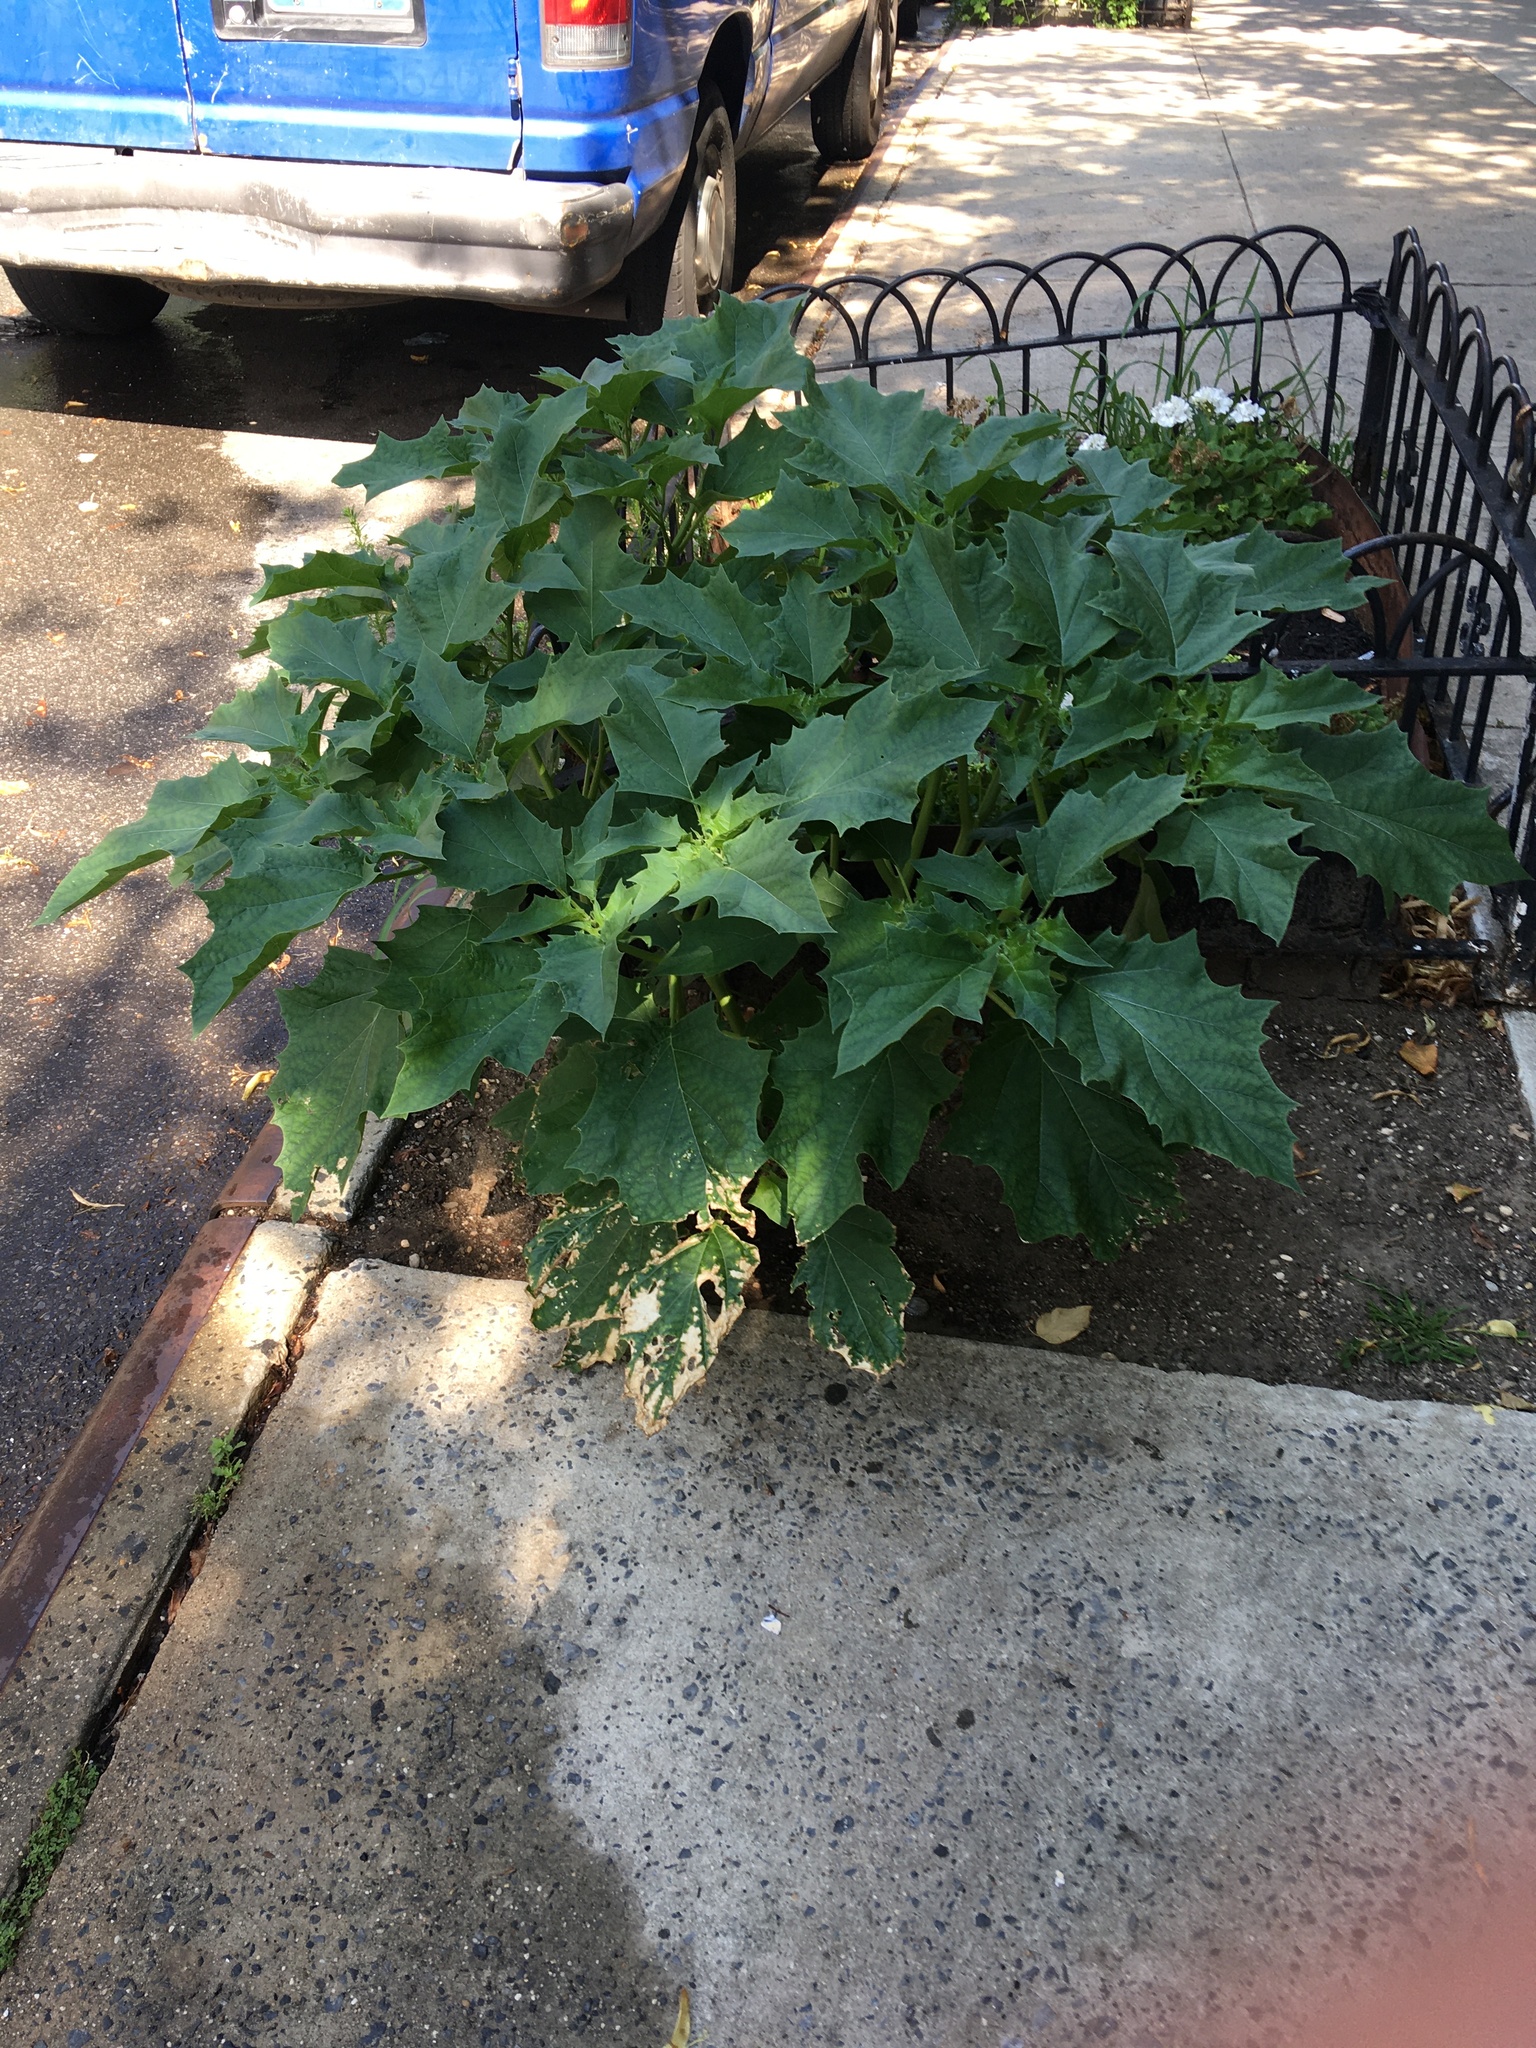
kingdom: Plantae
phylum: Tracheophyta
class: Magnoliopsida
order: Solanales
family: Solanaceae
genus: Datura
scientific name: Datura stramonium
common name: Thorn-apple
